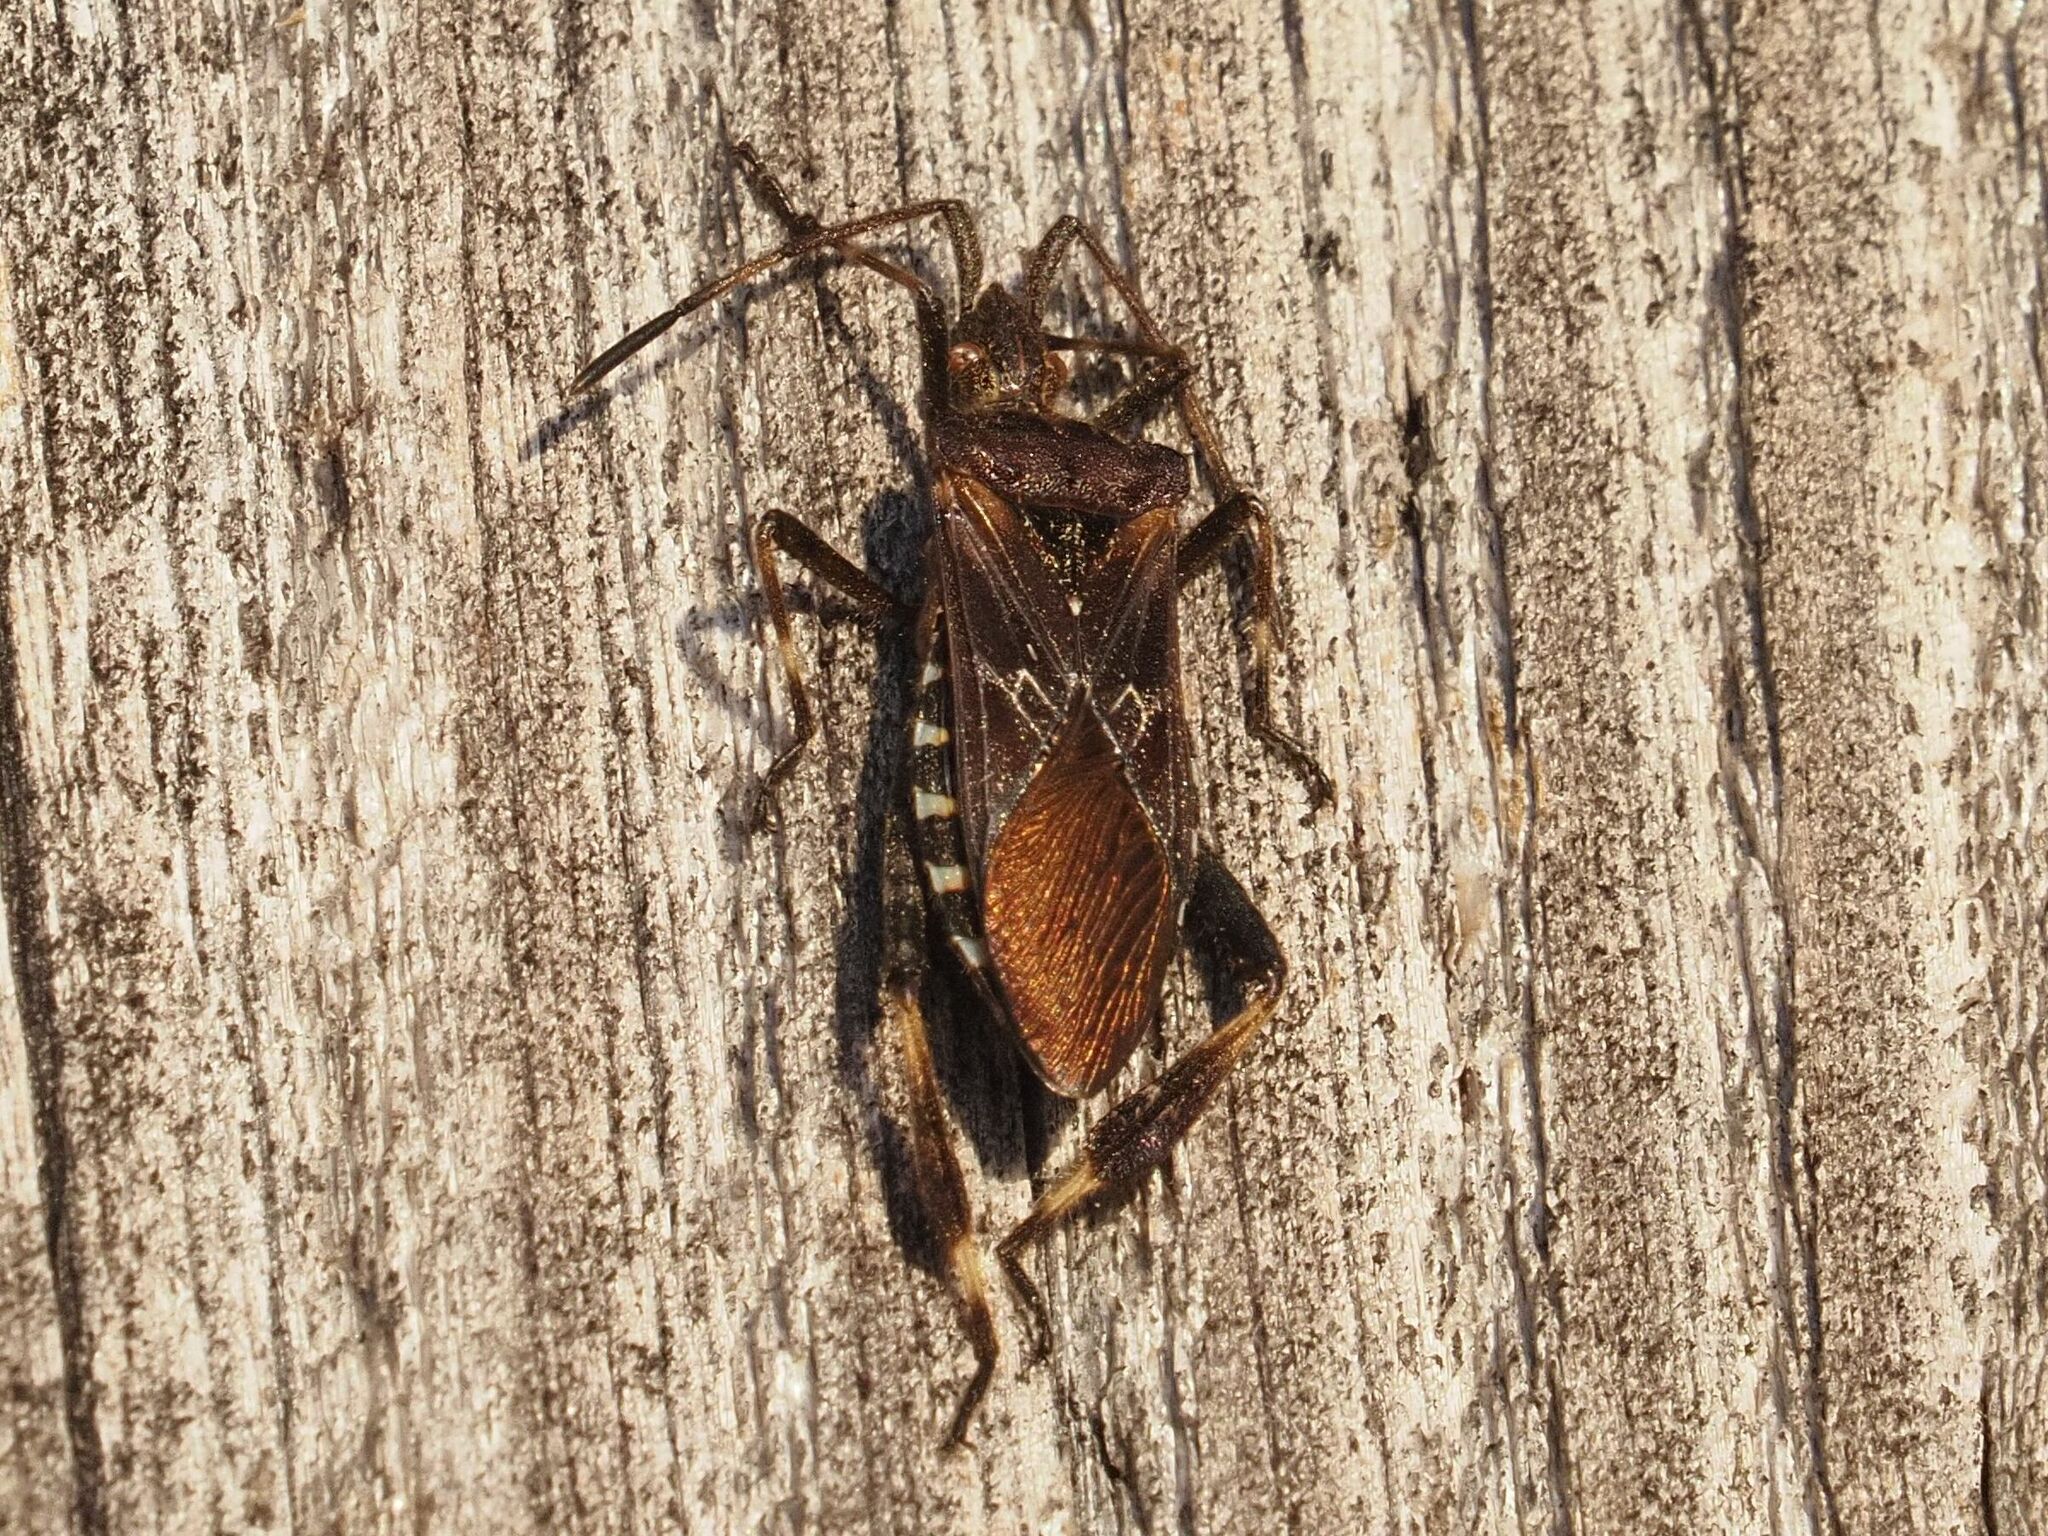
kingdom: Animalia
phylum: Arthropoda
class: Insecta
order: Hemiptera
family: Coreidae
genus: Leptoglossus
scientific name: Leptoglossus occidentalis
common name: Western conifer-seed bug
